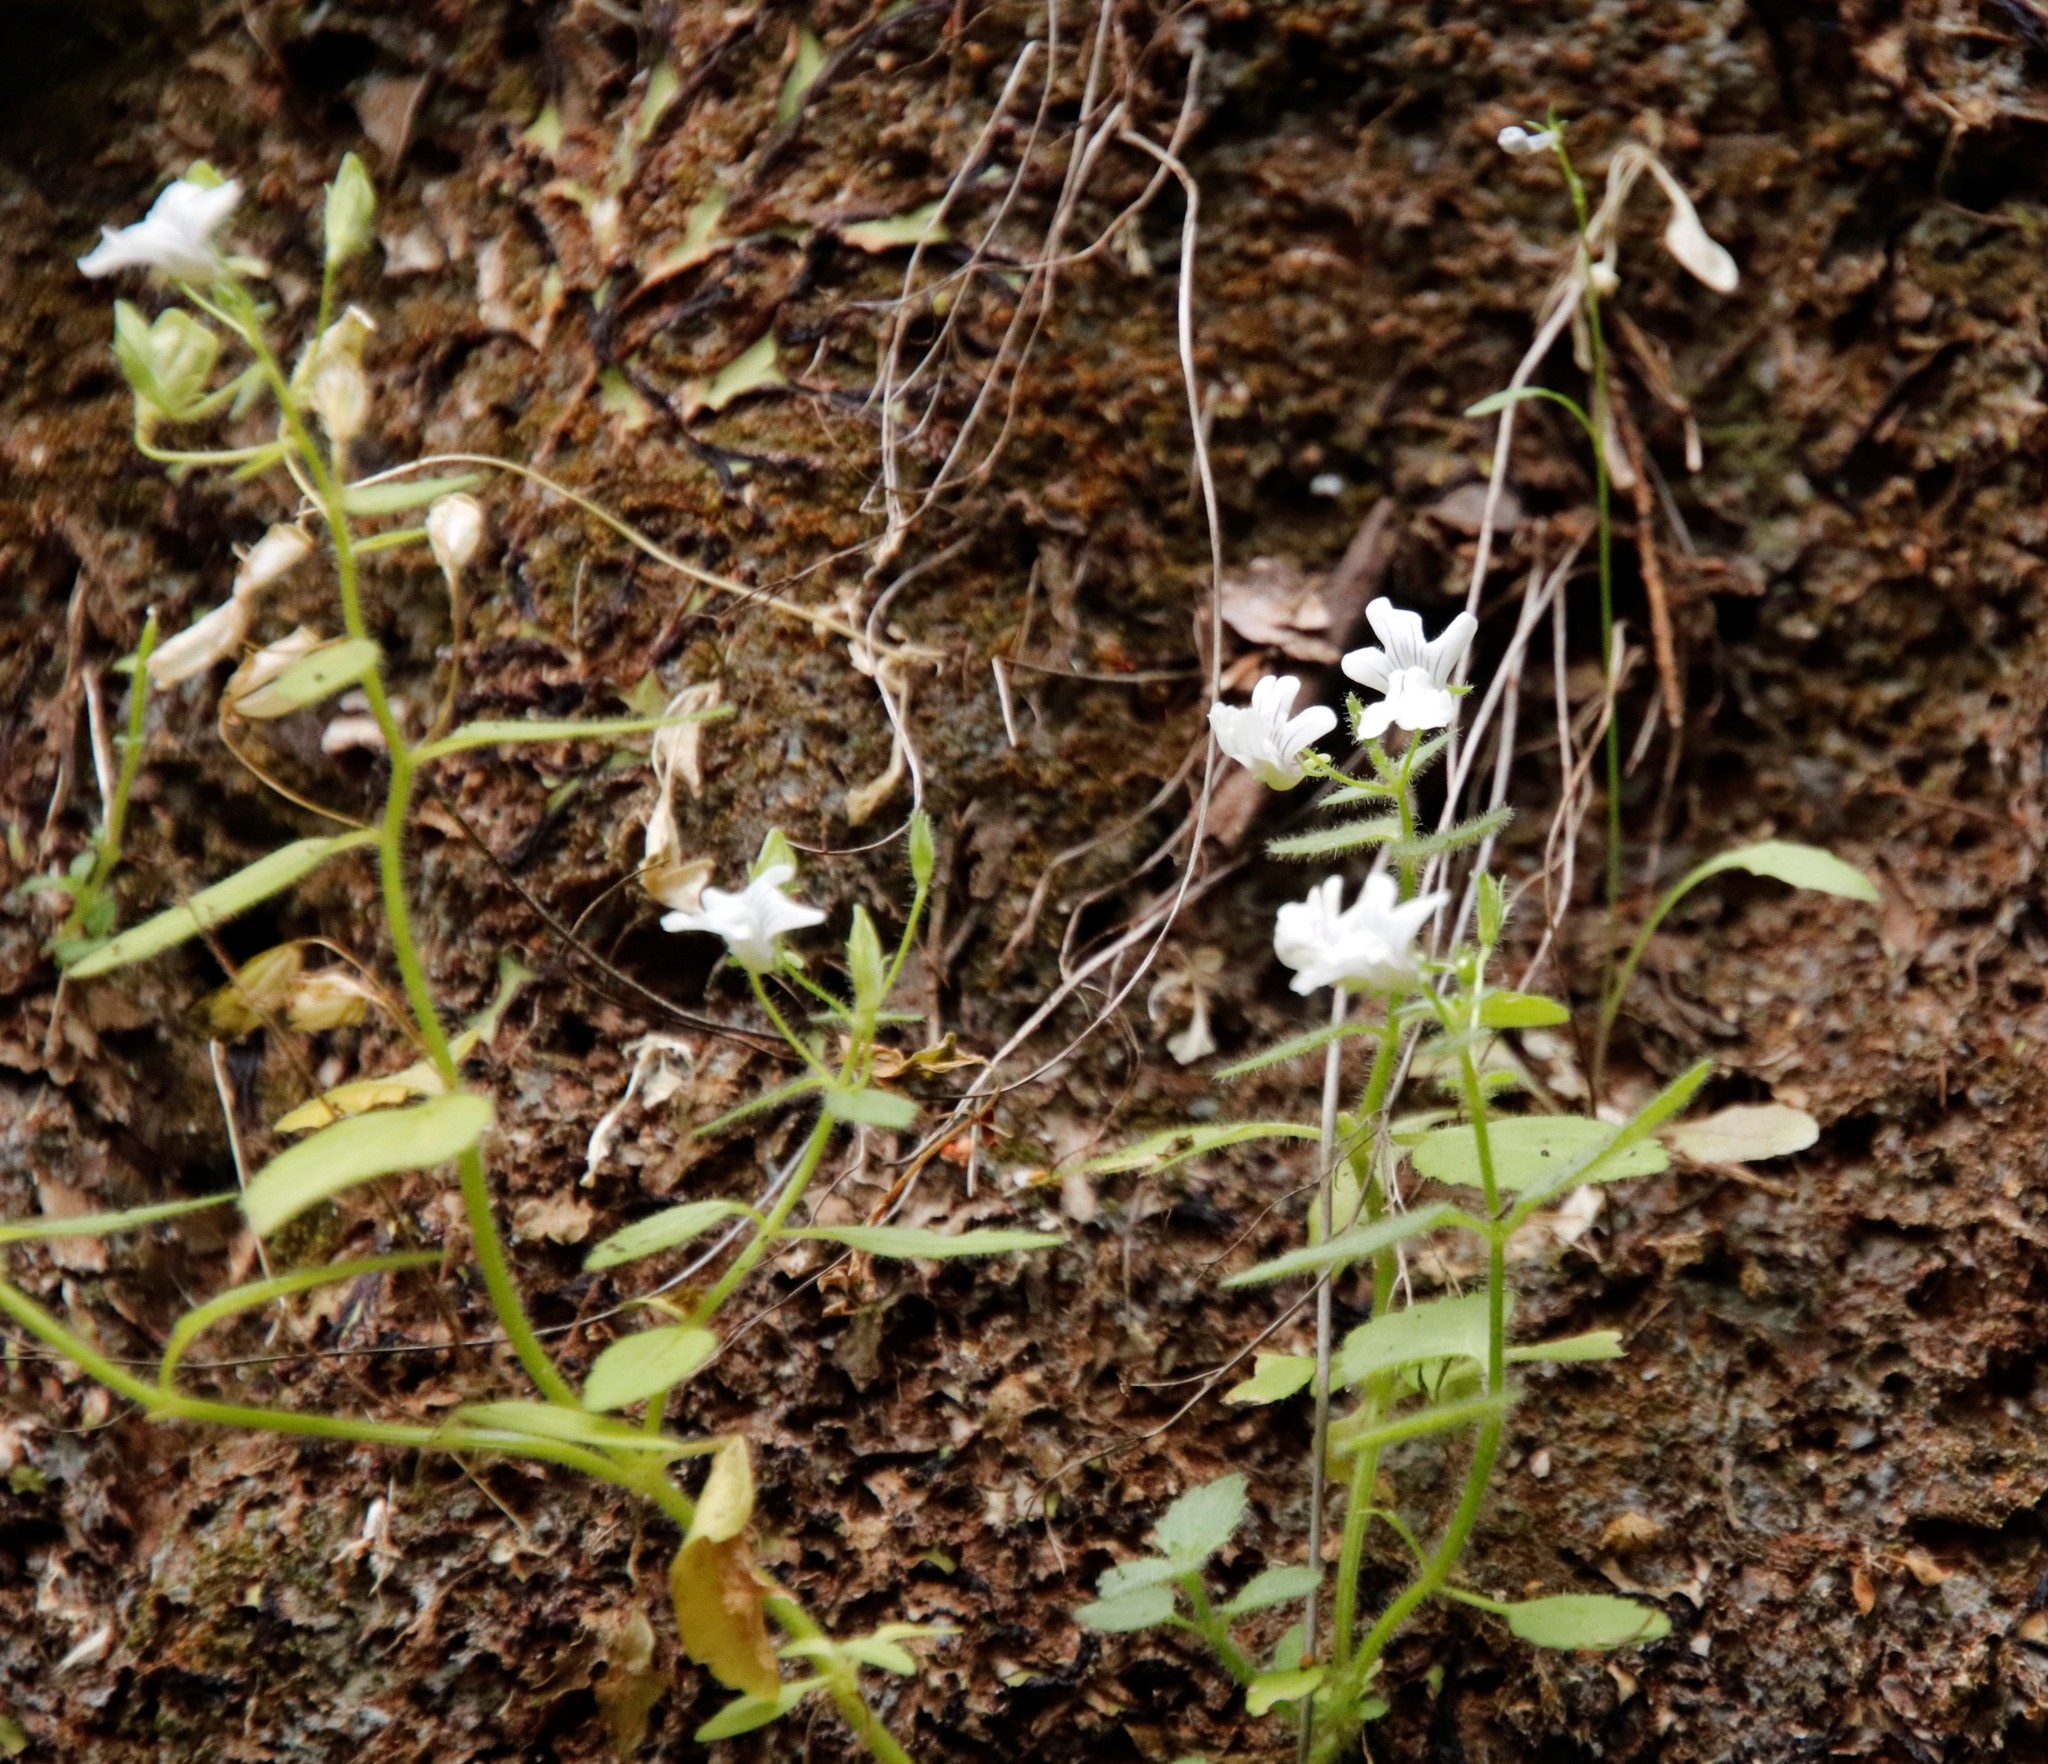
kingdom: Plantae
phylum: Tracheophyta
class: Magnoliopsida
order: Lamiales
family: Scrophulariaceae
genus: Nemesia
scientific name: Nemesia rupicola
